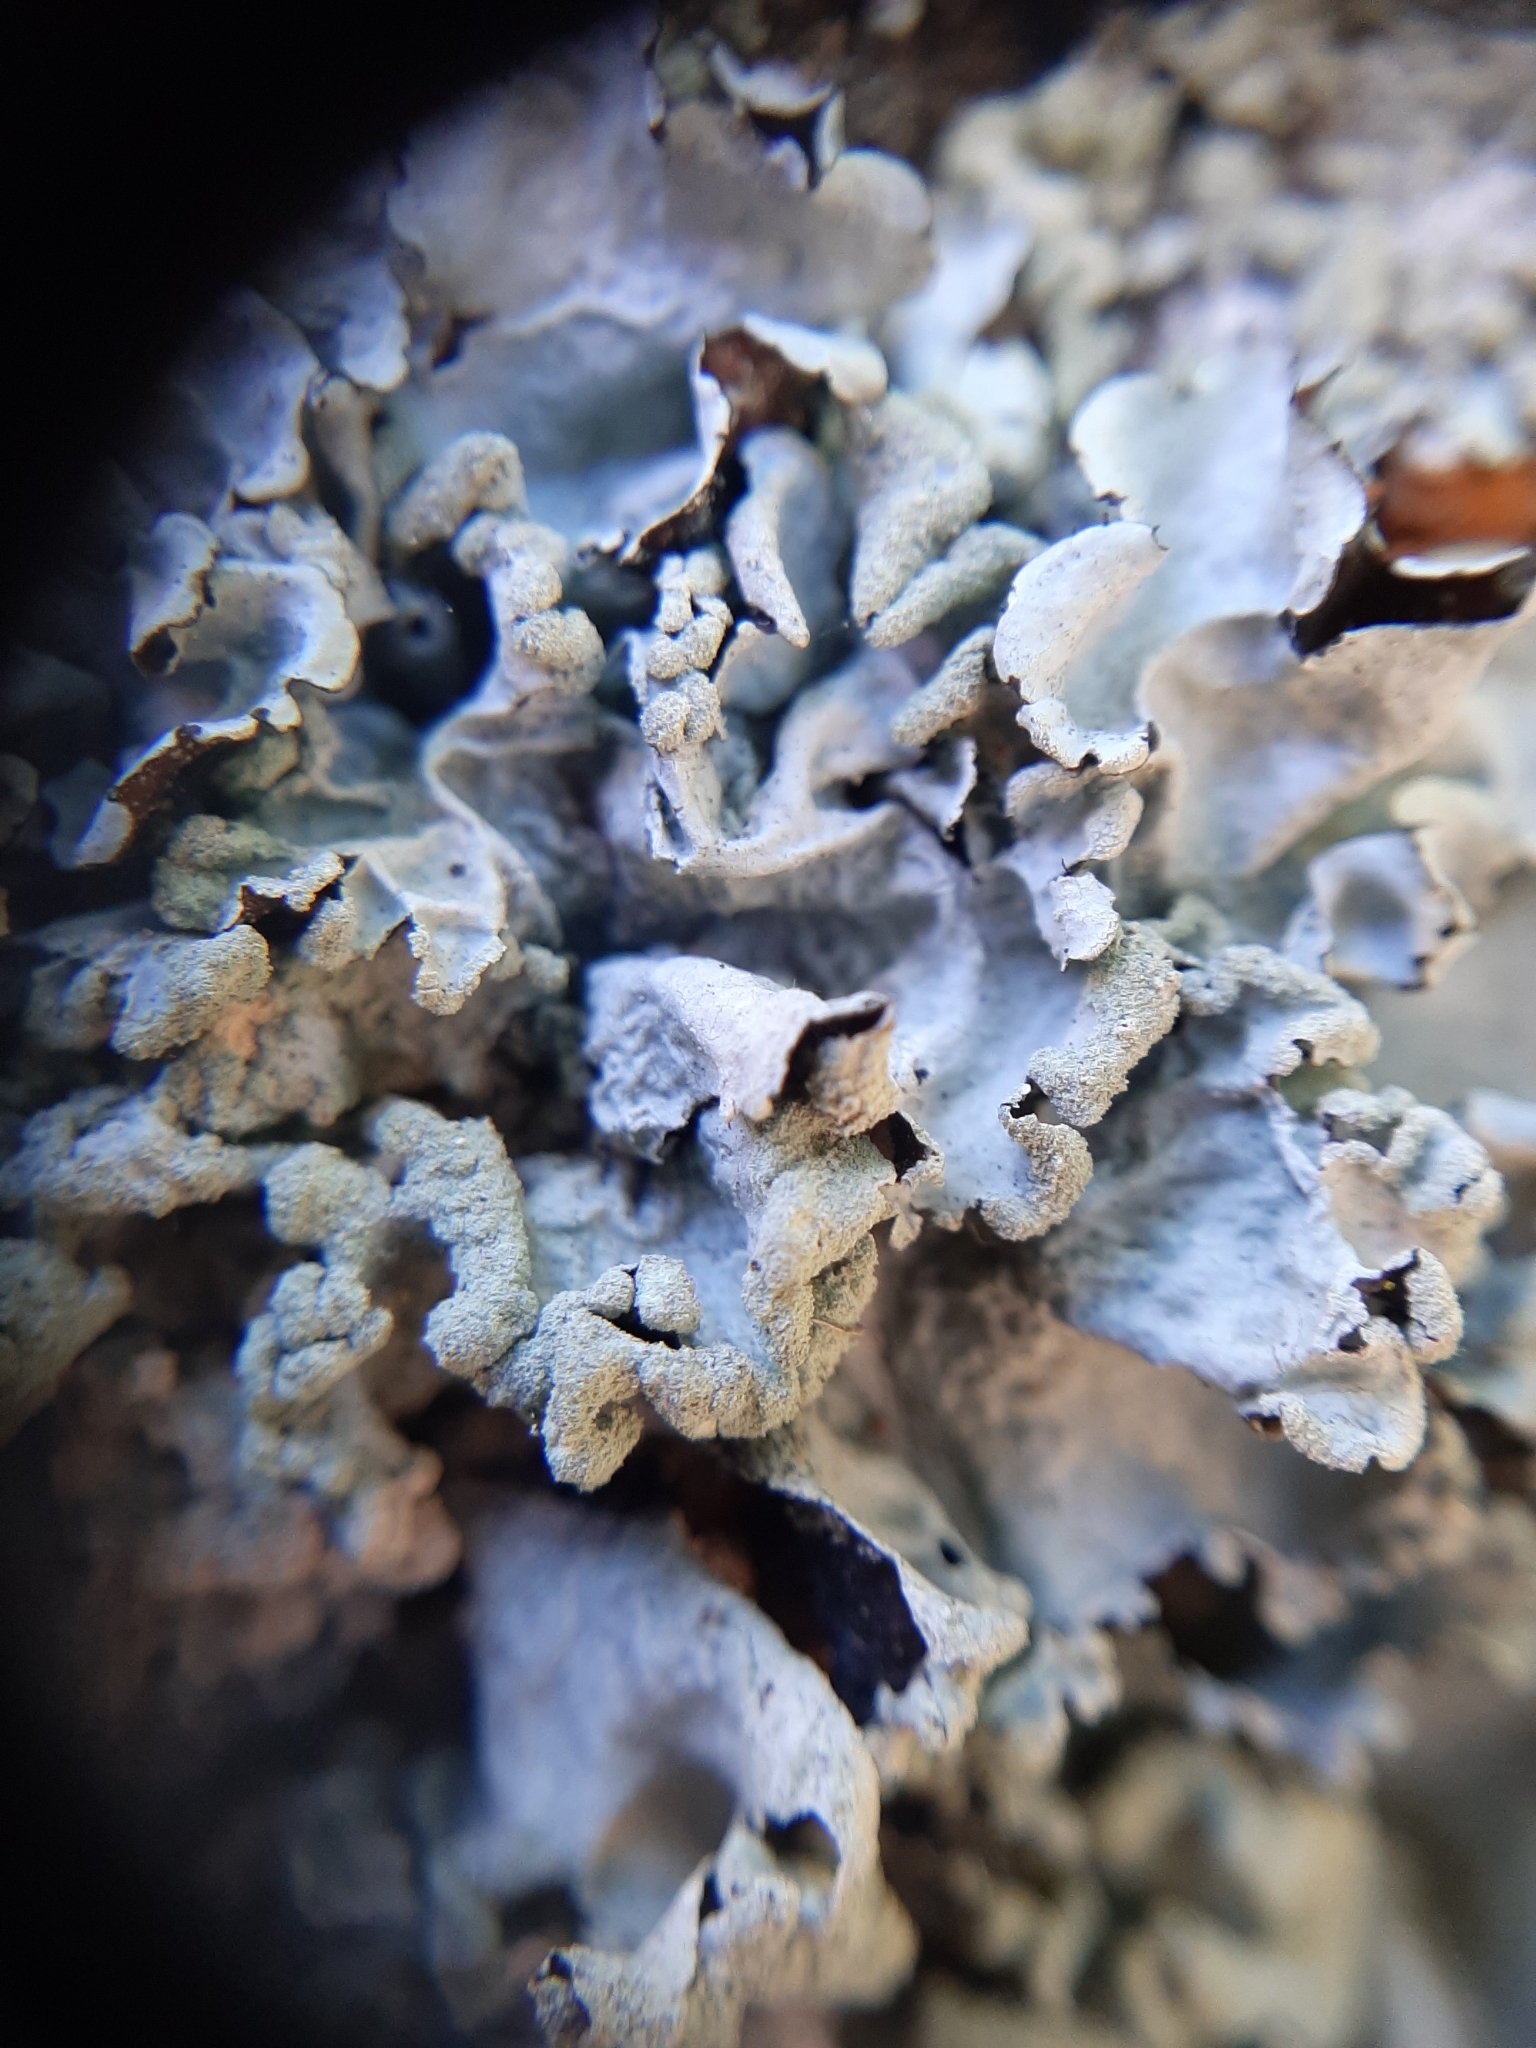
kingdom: Fungi
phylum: Ascomycota
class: Lecanoromycetes
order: Lecanorales
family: Parmeliaceae
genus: Parmotrema
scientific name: Parmotrema perlatum
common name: Black stone flower
